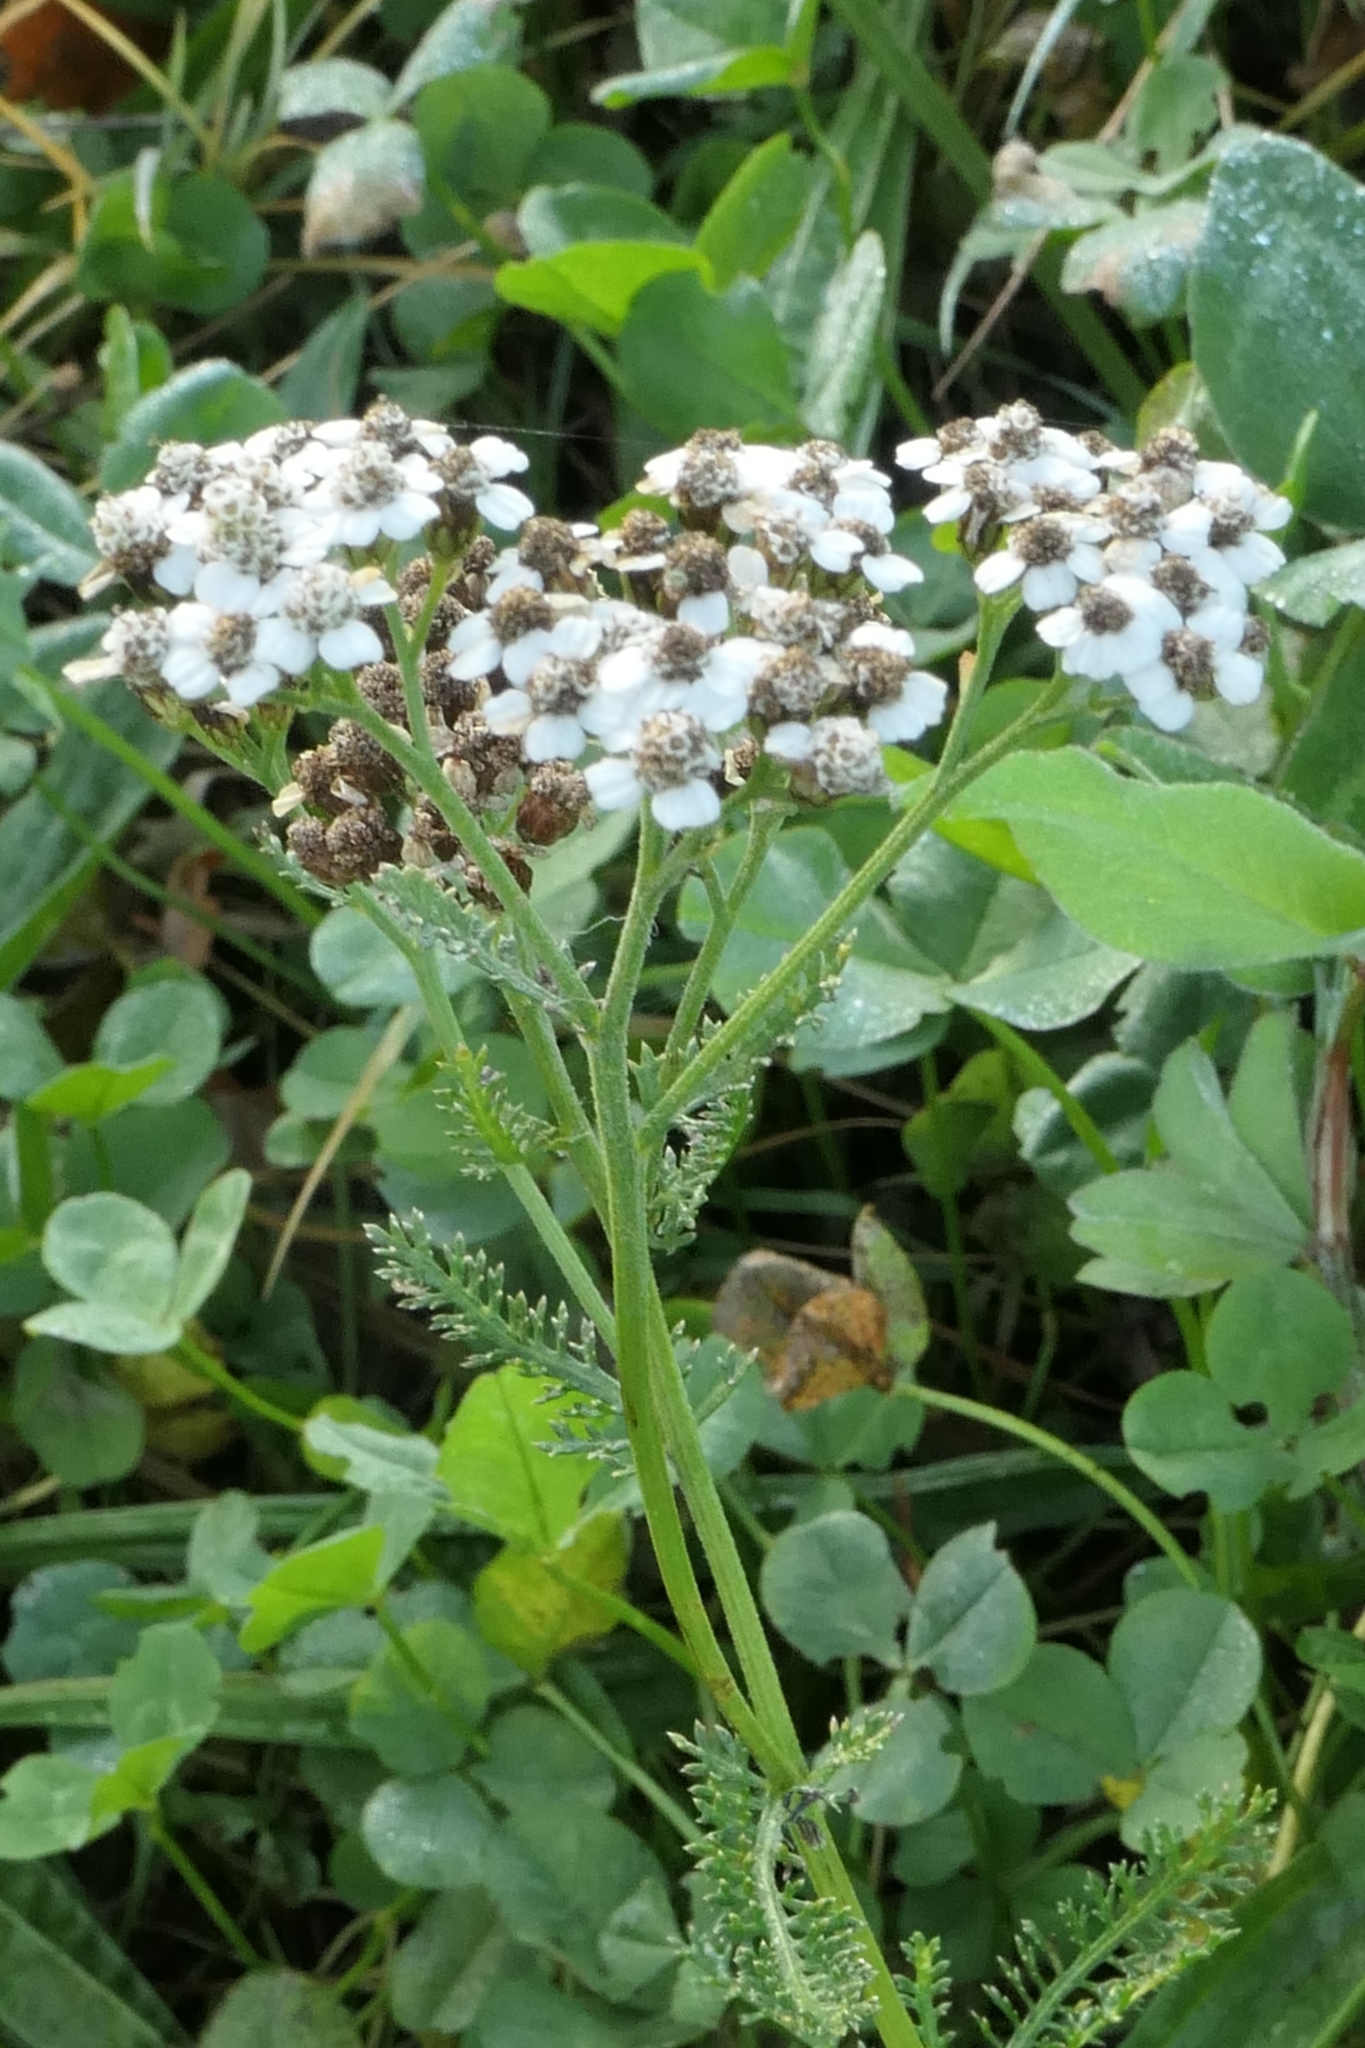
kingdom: Plantae
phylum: Tracheophyta
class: Magnoliopsida
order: Asterales
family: Asteraceae
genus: Achillea
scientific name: Achillea millefolium
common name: Yarrow
